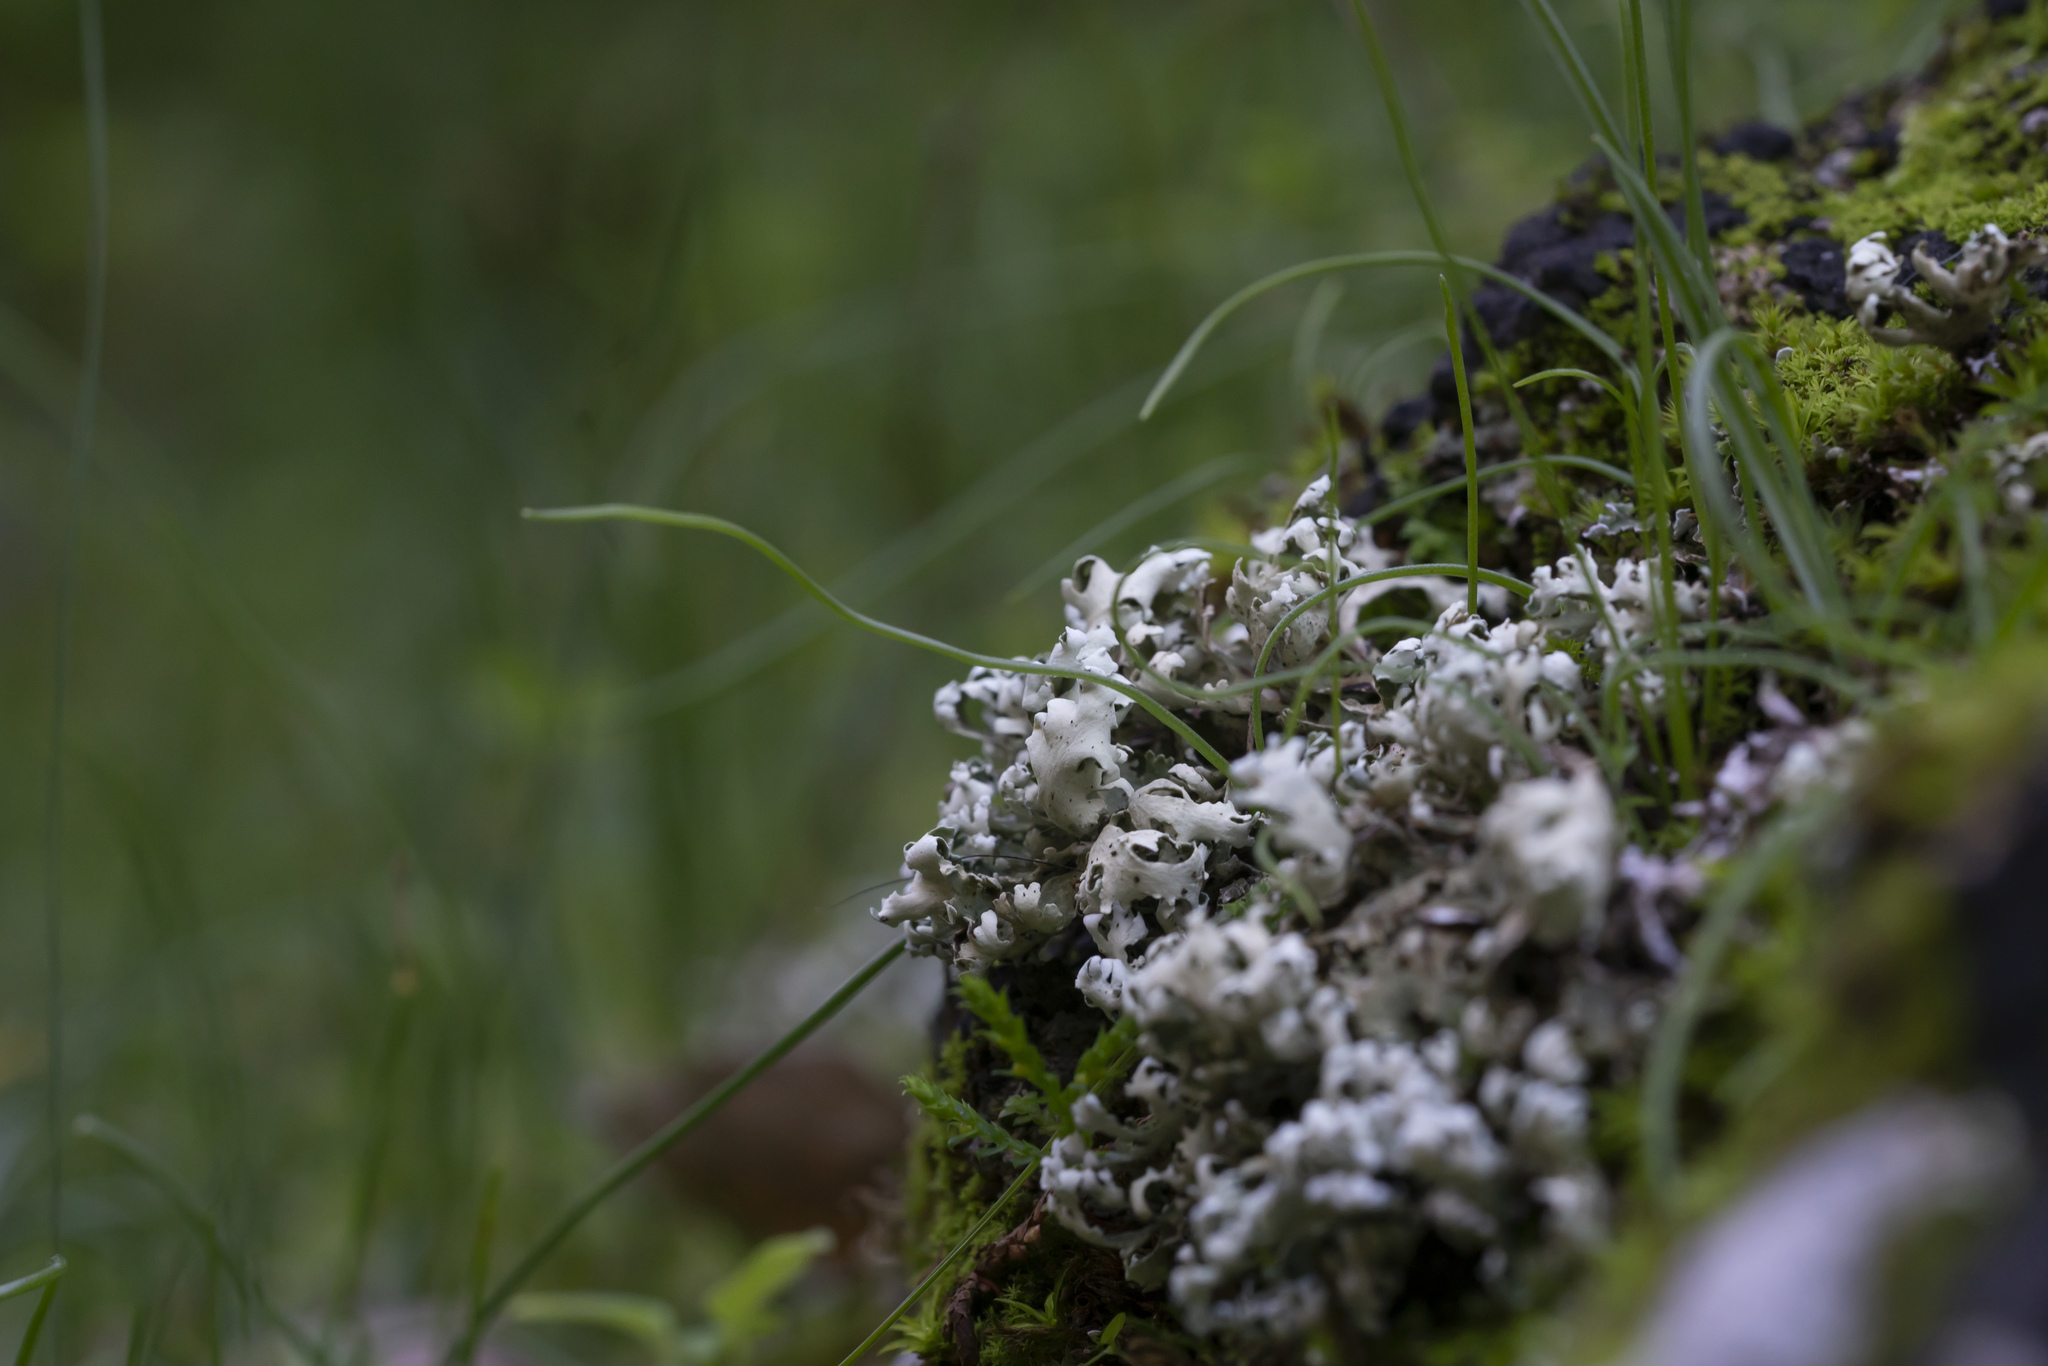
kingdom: Fungi
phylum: Ascomycota
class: Lecanoromycetes
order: Lecanorales
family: Cladoniaceae
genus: Cladonia
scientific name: Cladonia foliacea
